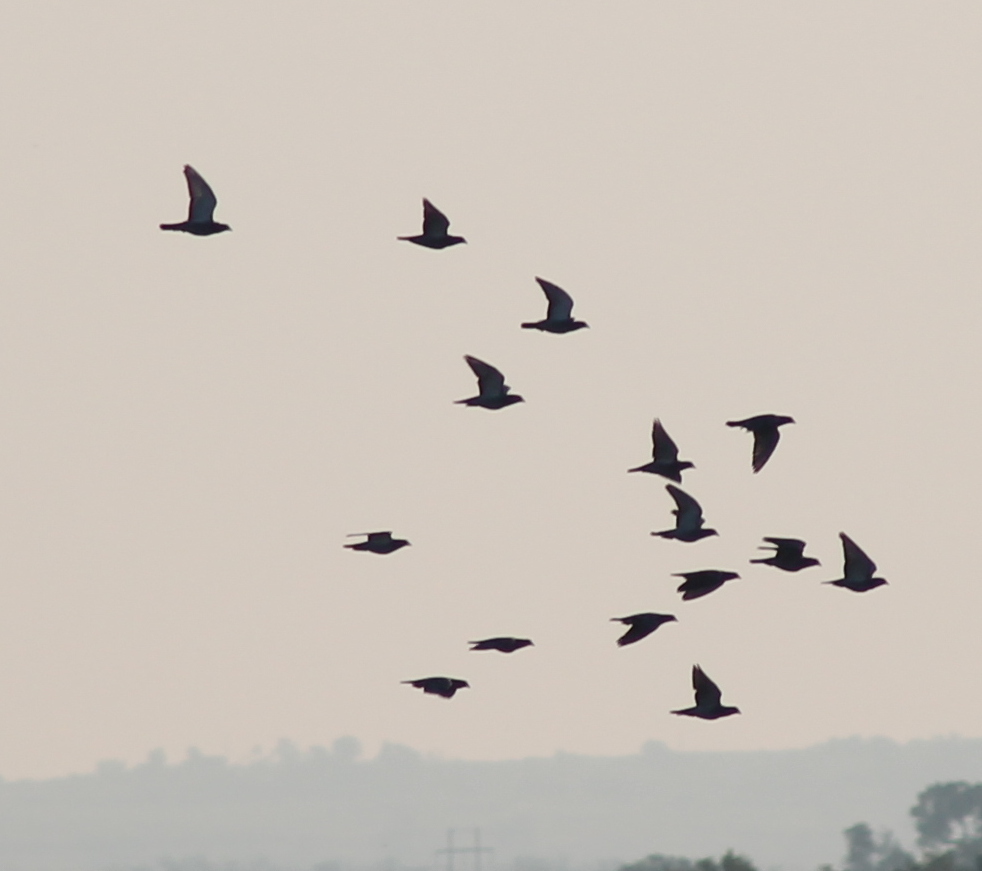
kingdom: Animalia
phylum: Chordata
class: Aves
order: Columbiformes
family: Columbidae
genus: Columba
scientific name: Columba livia
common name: Rock pigeon
